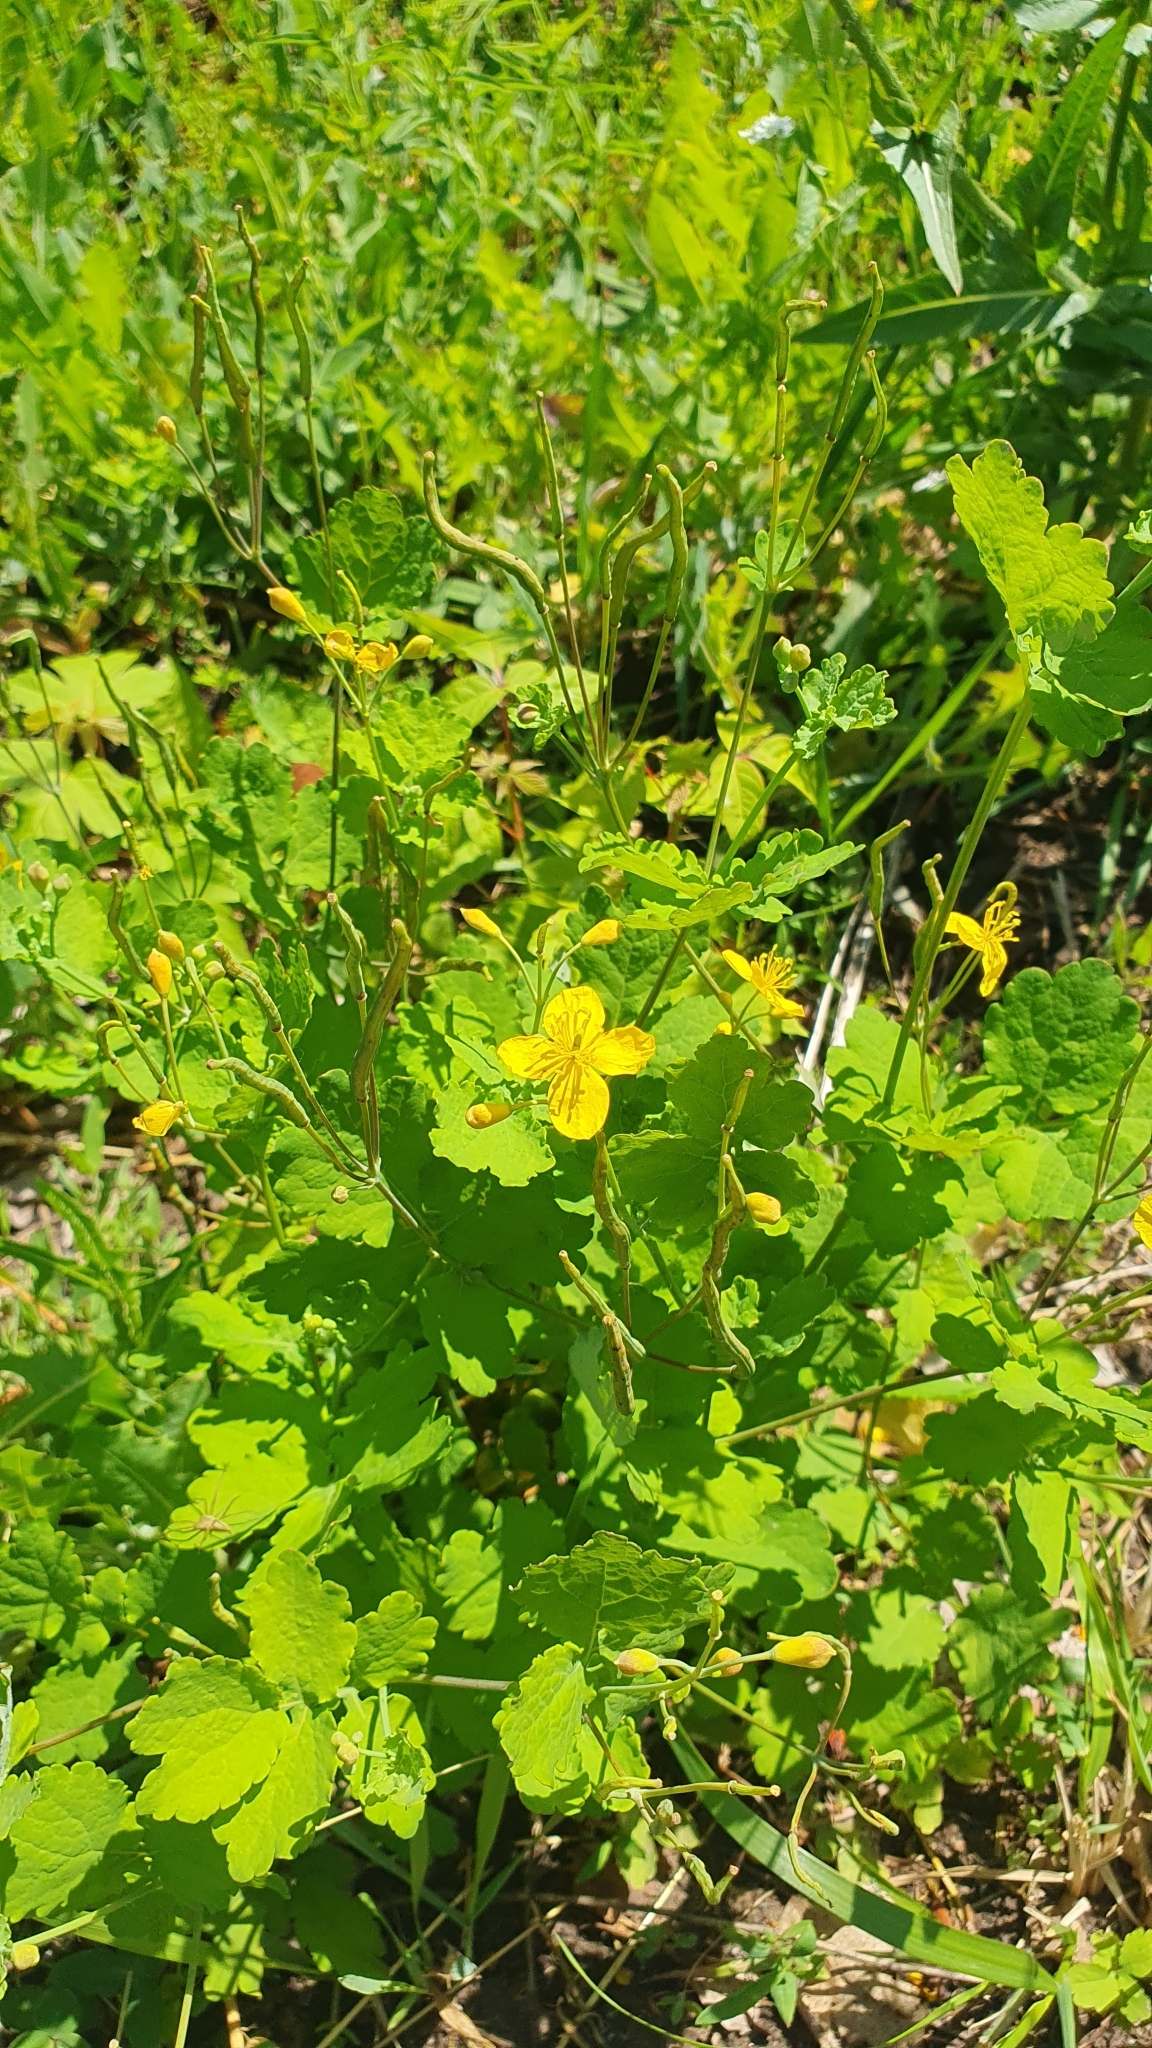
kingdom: Plantae
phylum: Tracheophyta
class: Magnoliopsida
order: Ranunculales
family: Papaveraceae
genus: Chelidonium
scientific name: Chelidonium majus
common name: Greater celandine
